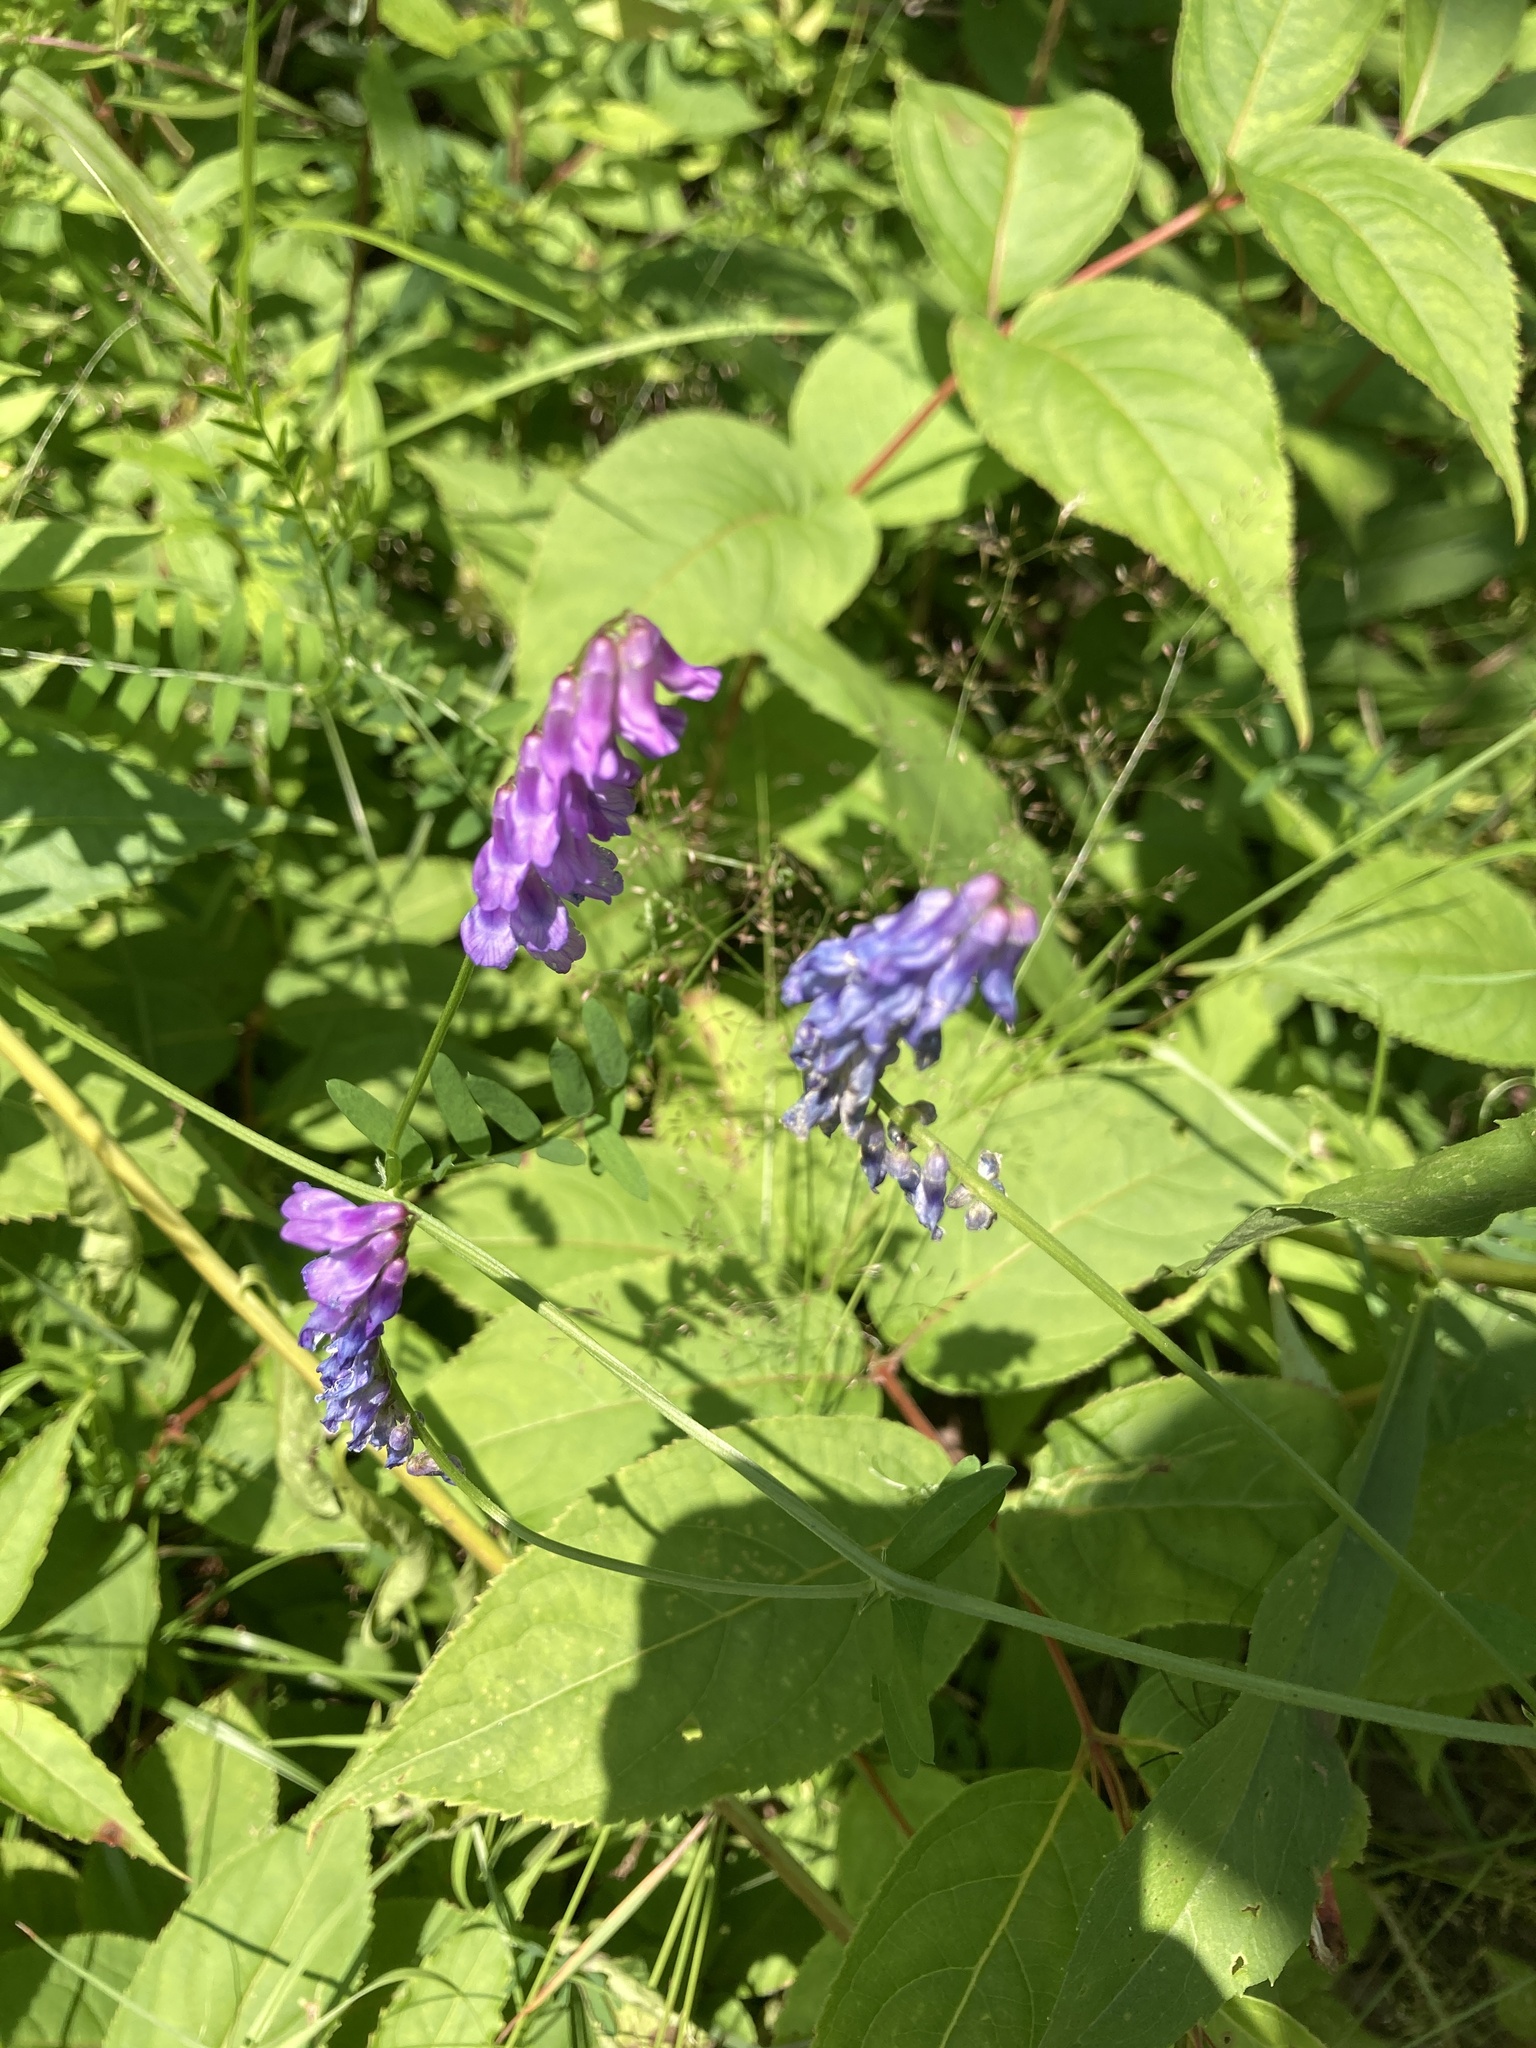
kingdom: Plantae
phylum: Tracheophyta
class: Magnoliopsida
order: Fabales
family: Fabaceae
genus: Vicia
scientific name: Vicia cracca
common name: Bird vetch
